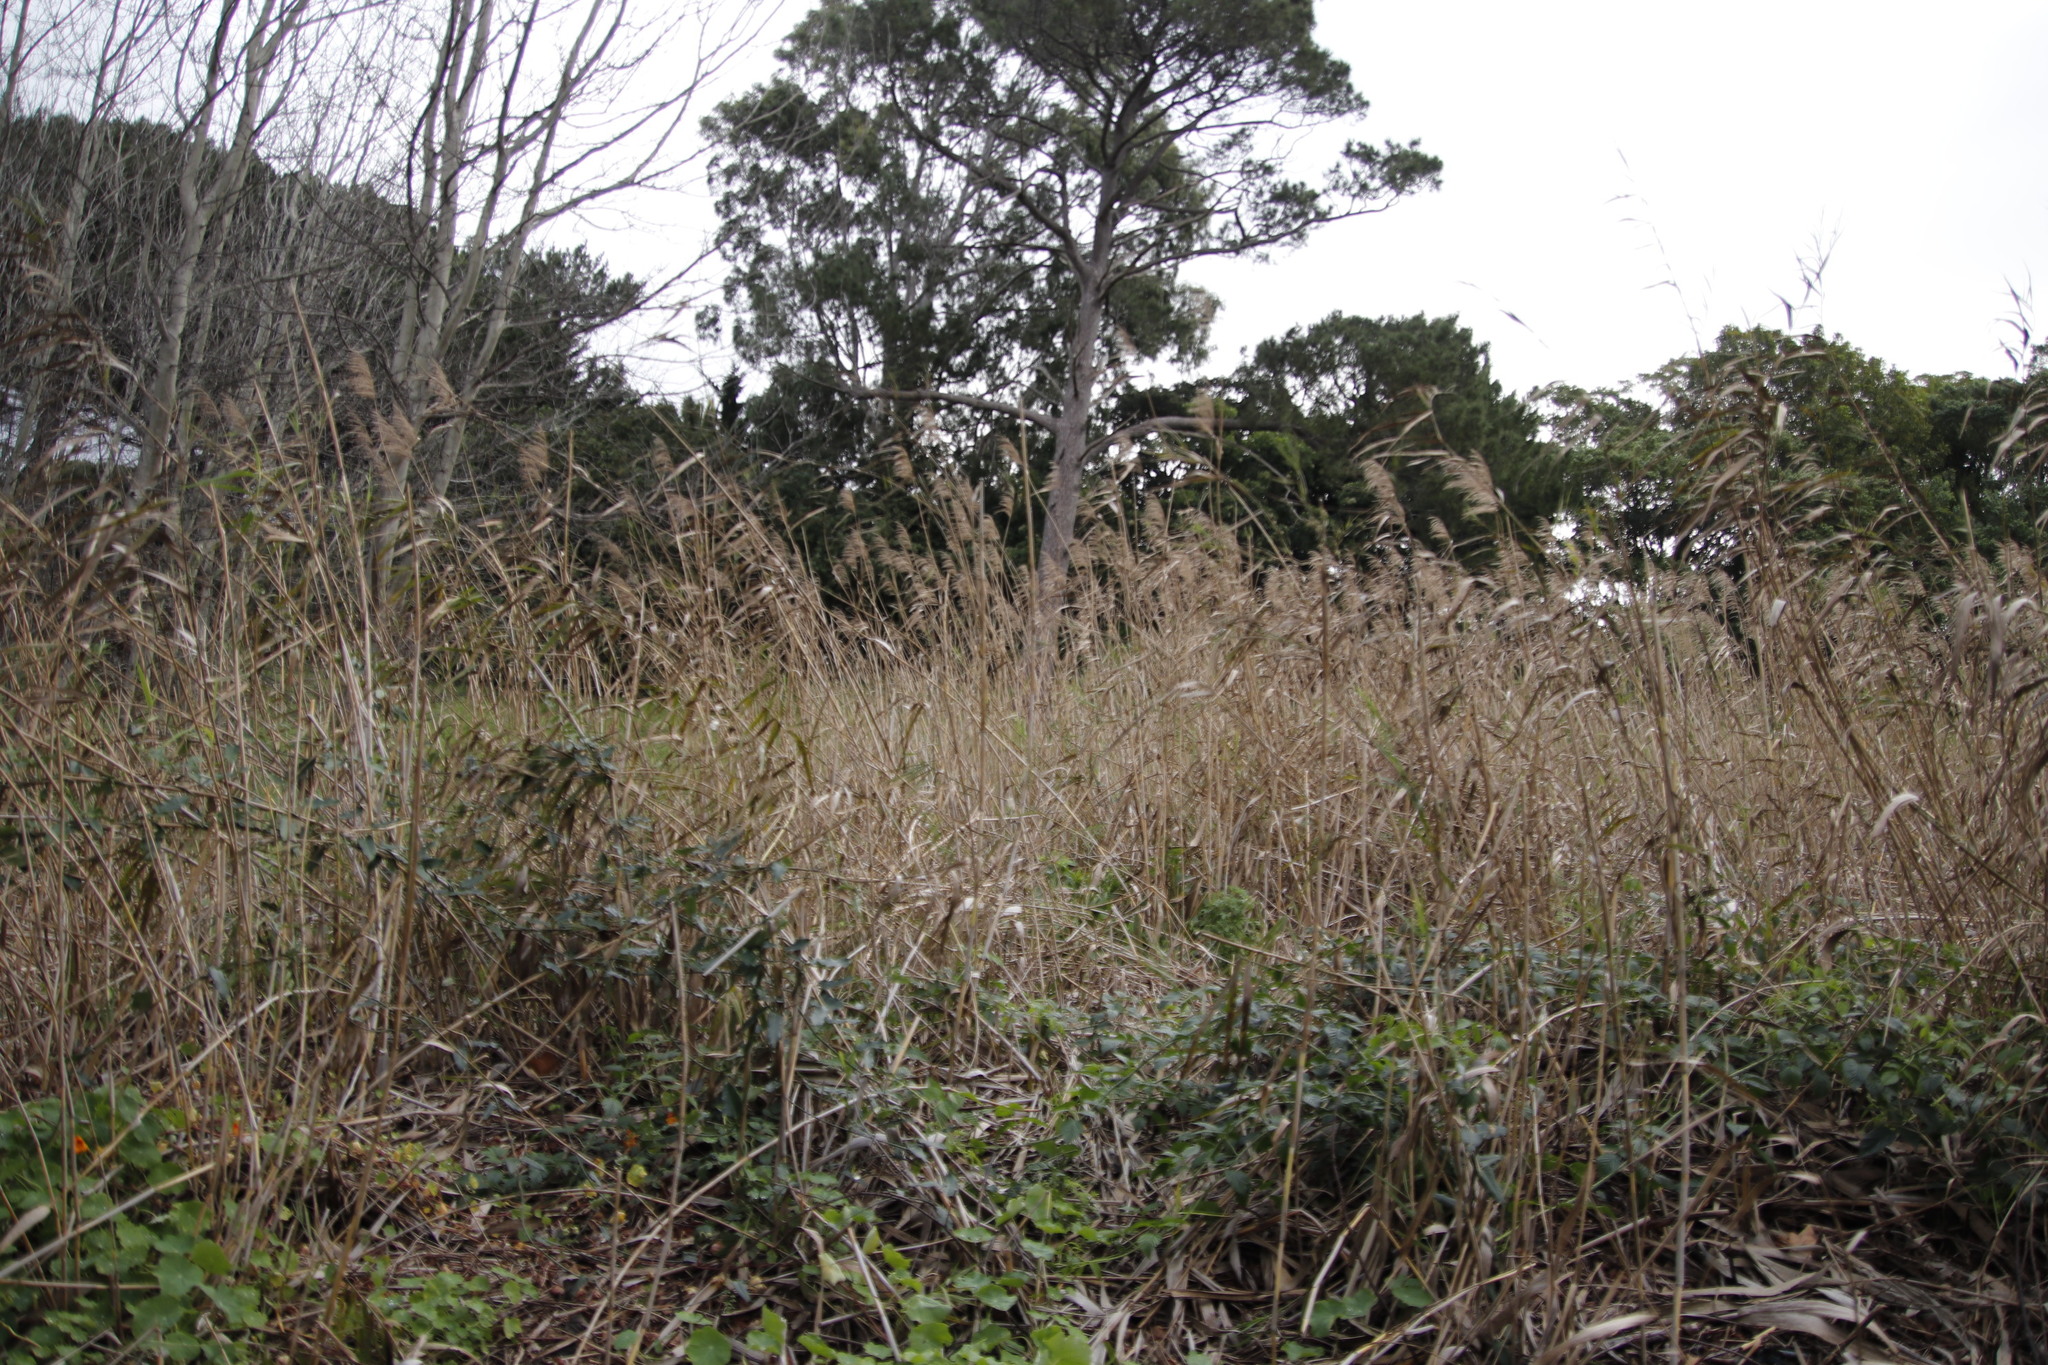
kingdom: Plantae
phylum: Tracheophyta
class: Liliopsida
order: Poales
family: Poaceae
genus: Phragmites
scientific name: Phragmites australis
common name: Common reed
